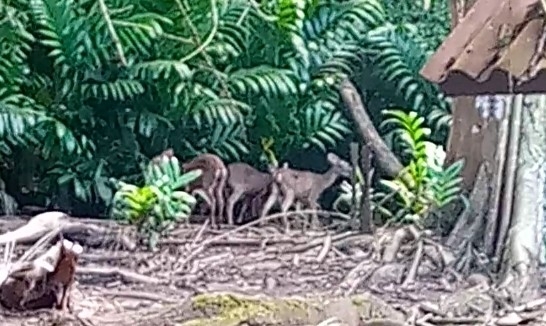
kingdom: Animalia
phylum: Chordata
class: Mammalia
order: Artiodactyla
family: Cervidae
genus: Odocoileus
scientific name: Odocoileus virginianus
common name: White-tailed deer
